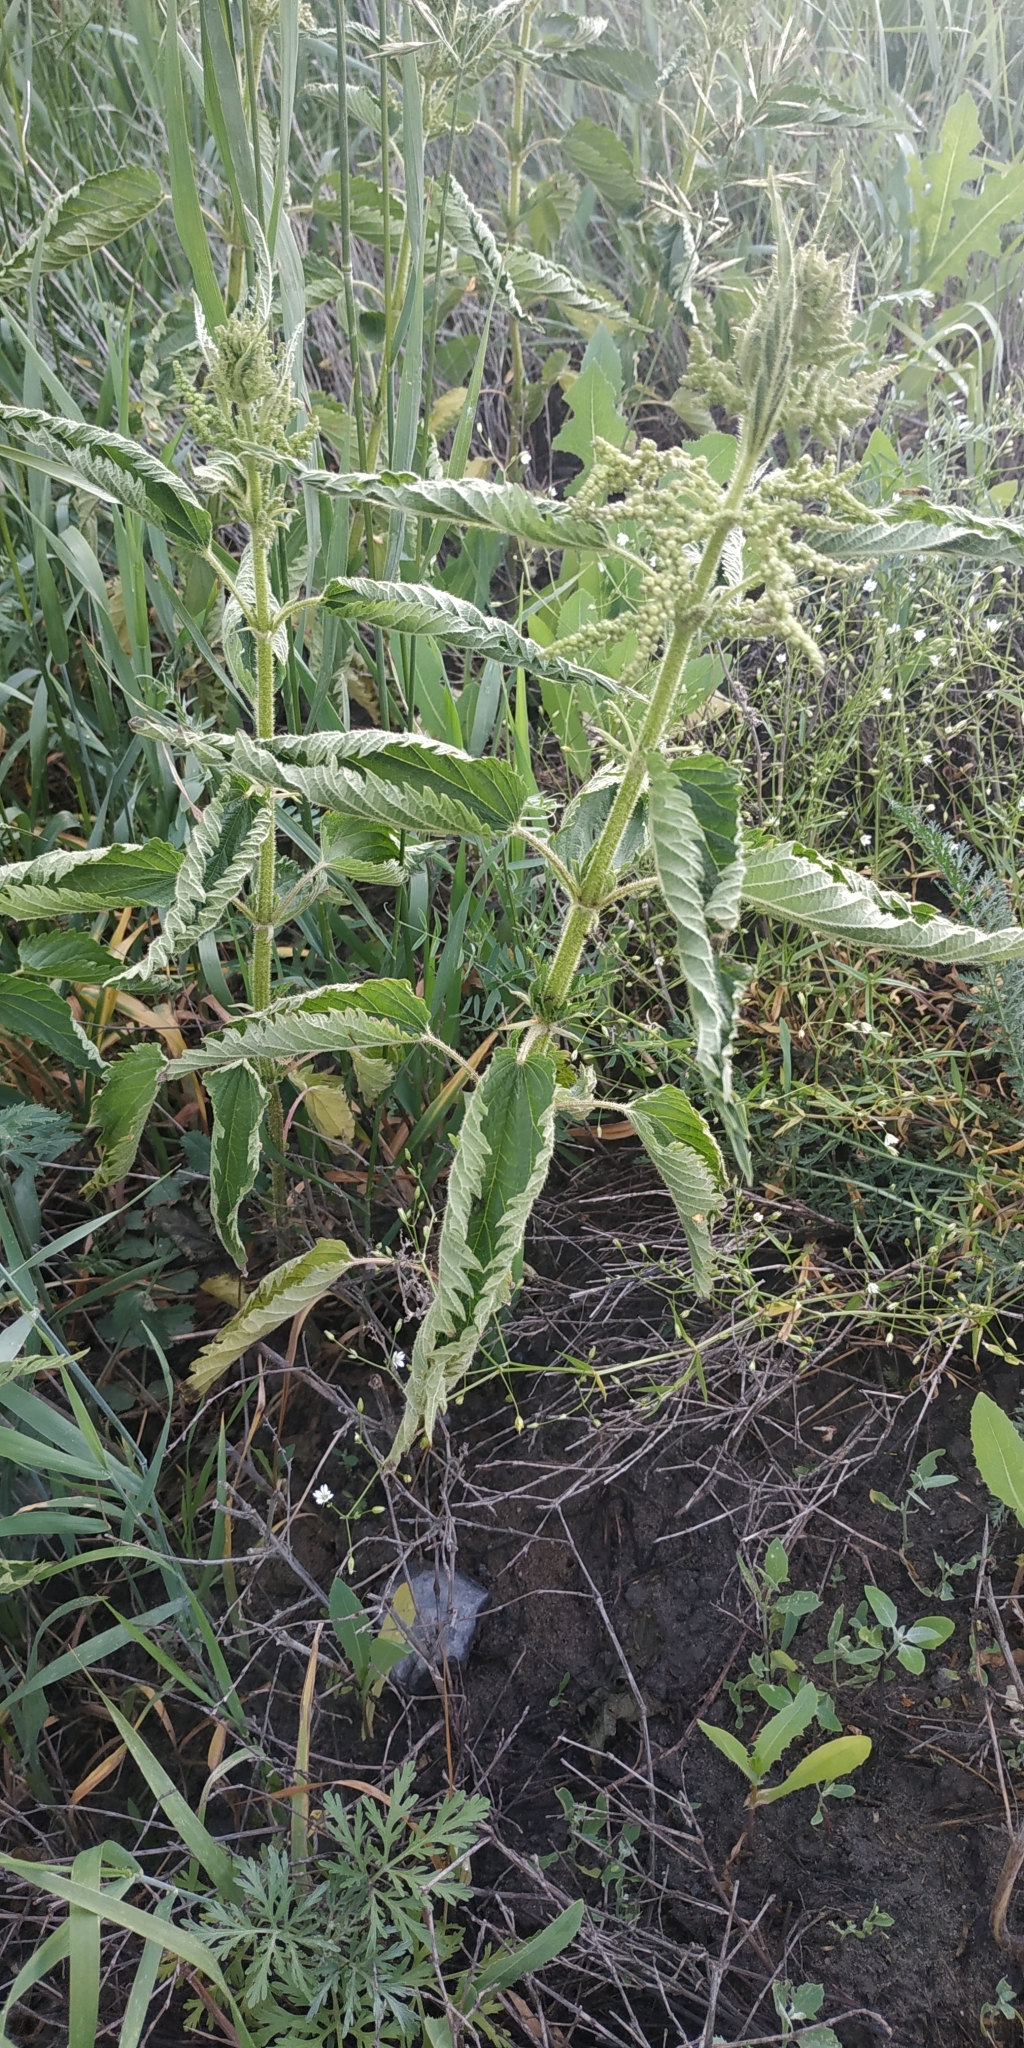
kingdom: Plantae
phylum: Tracheophyta
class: Magnoliopsida
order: Rosales
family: Urticaceae
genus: Urtica
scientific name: Urtica dioica
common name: Common nettle
